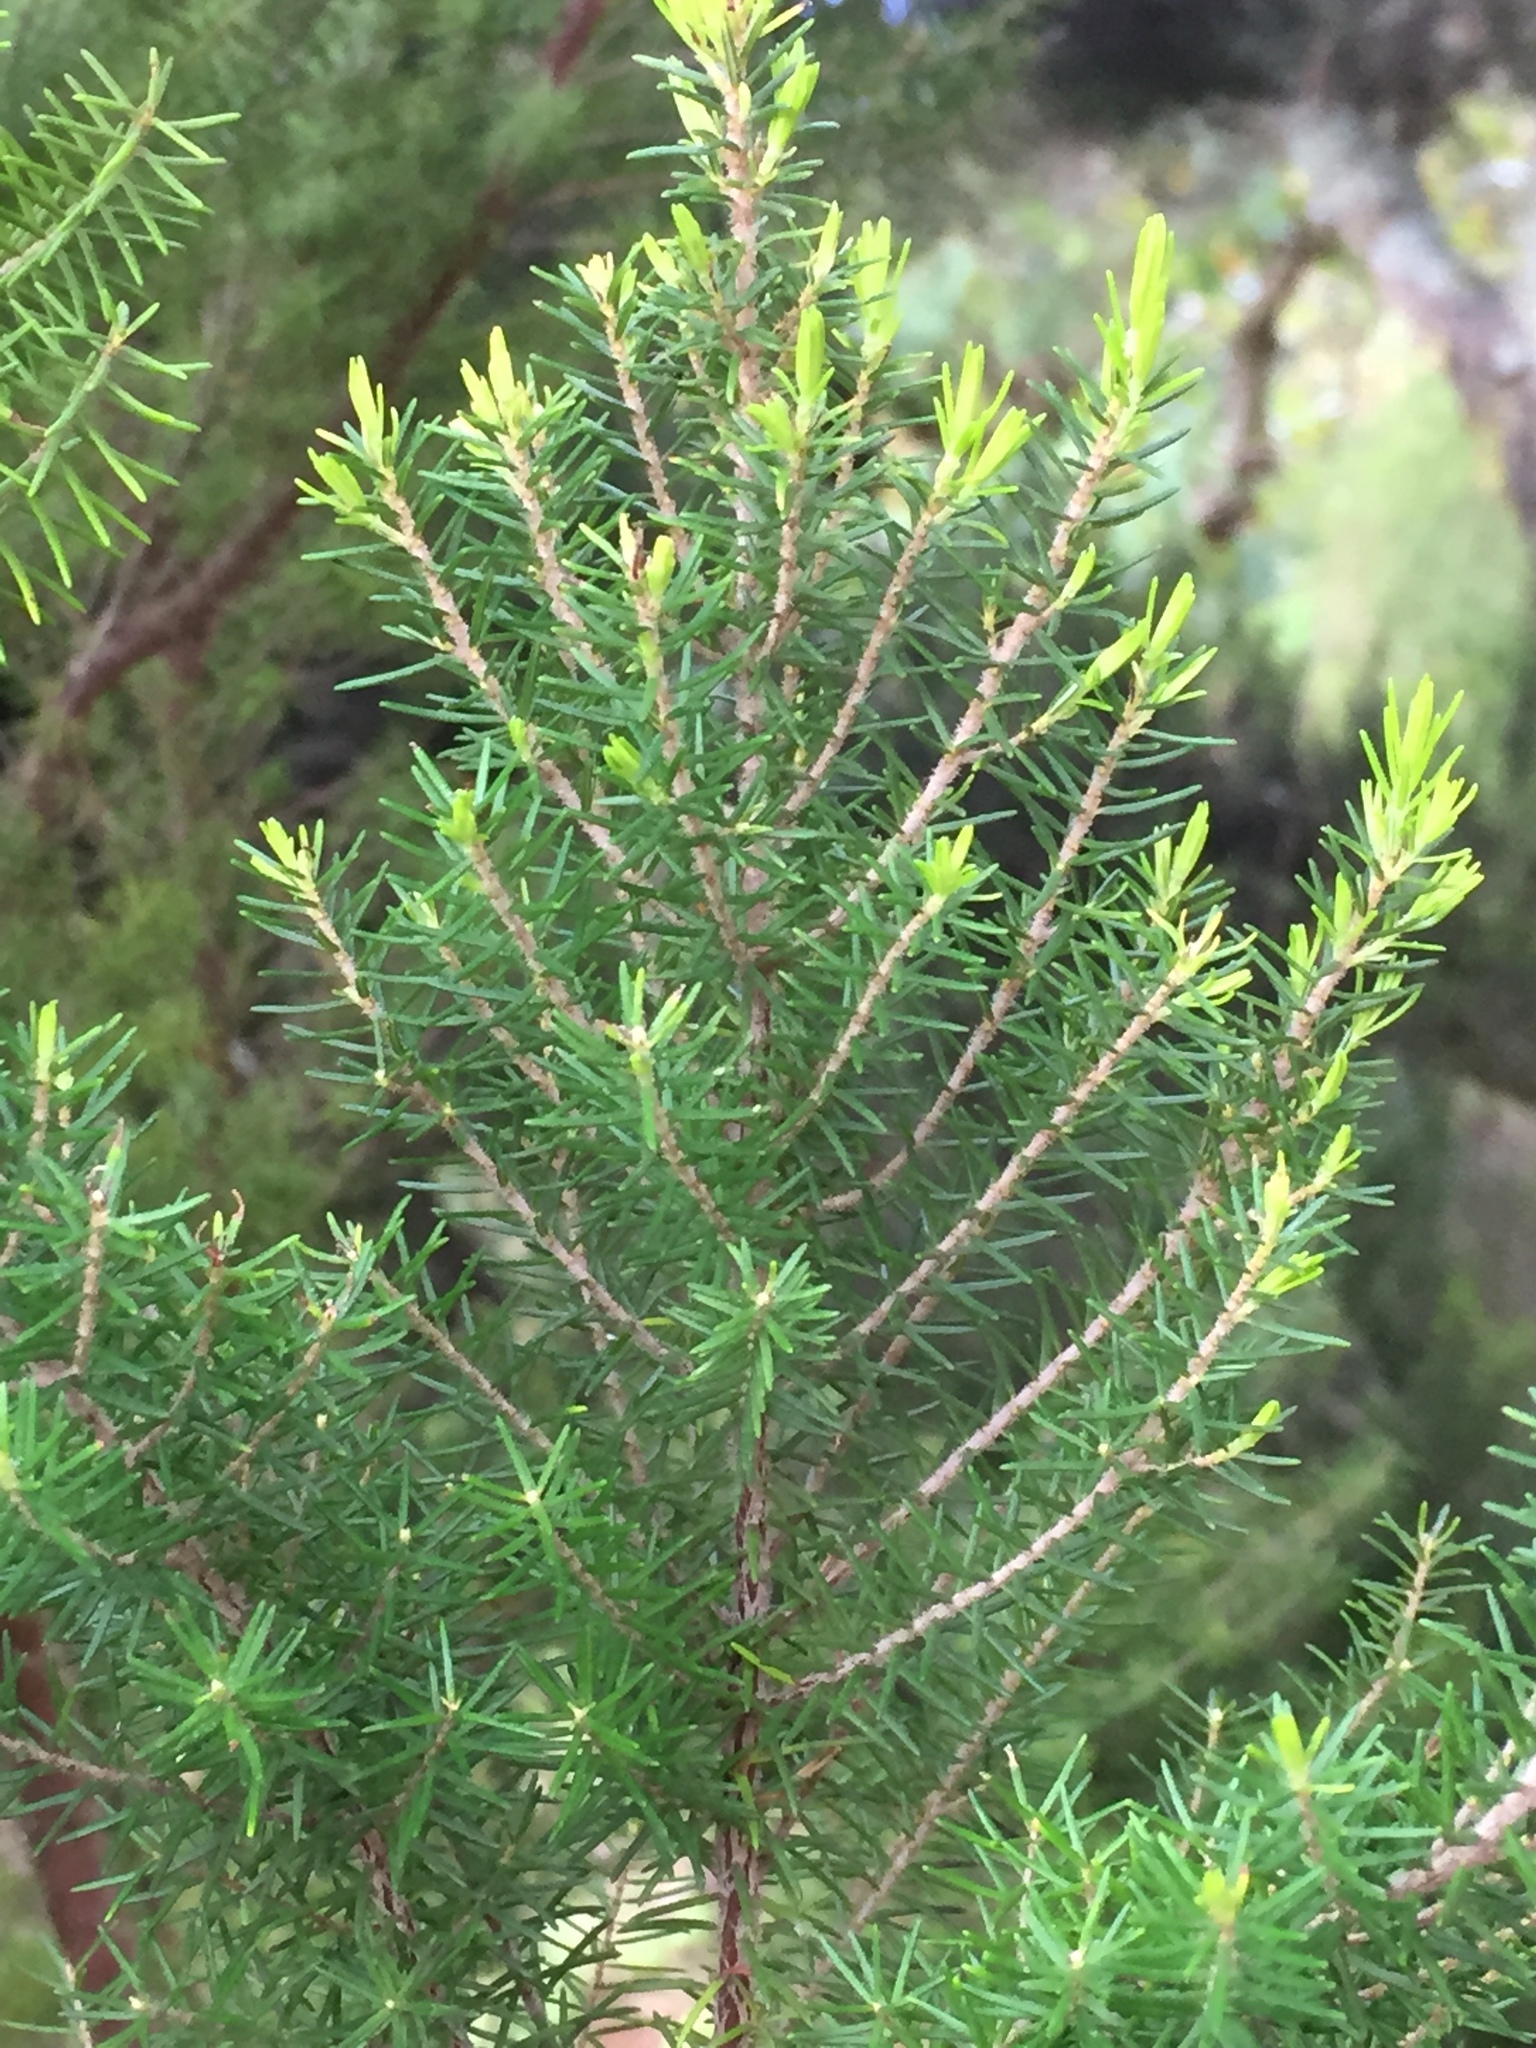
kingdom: Plantae
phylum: Tracheophyta
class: Magnoliopsida
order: Ericales
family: Ericaceae
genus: Erica
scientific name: Erica canariensis
